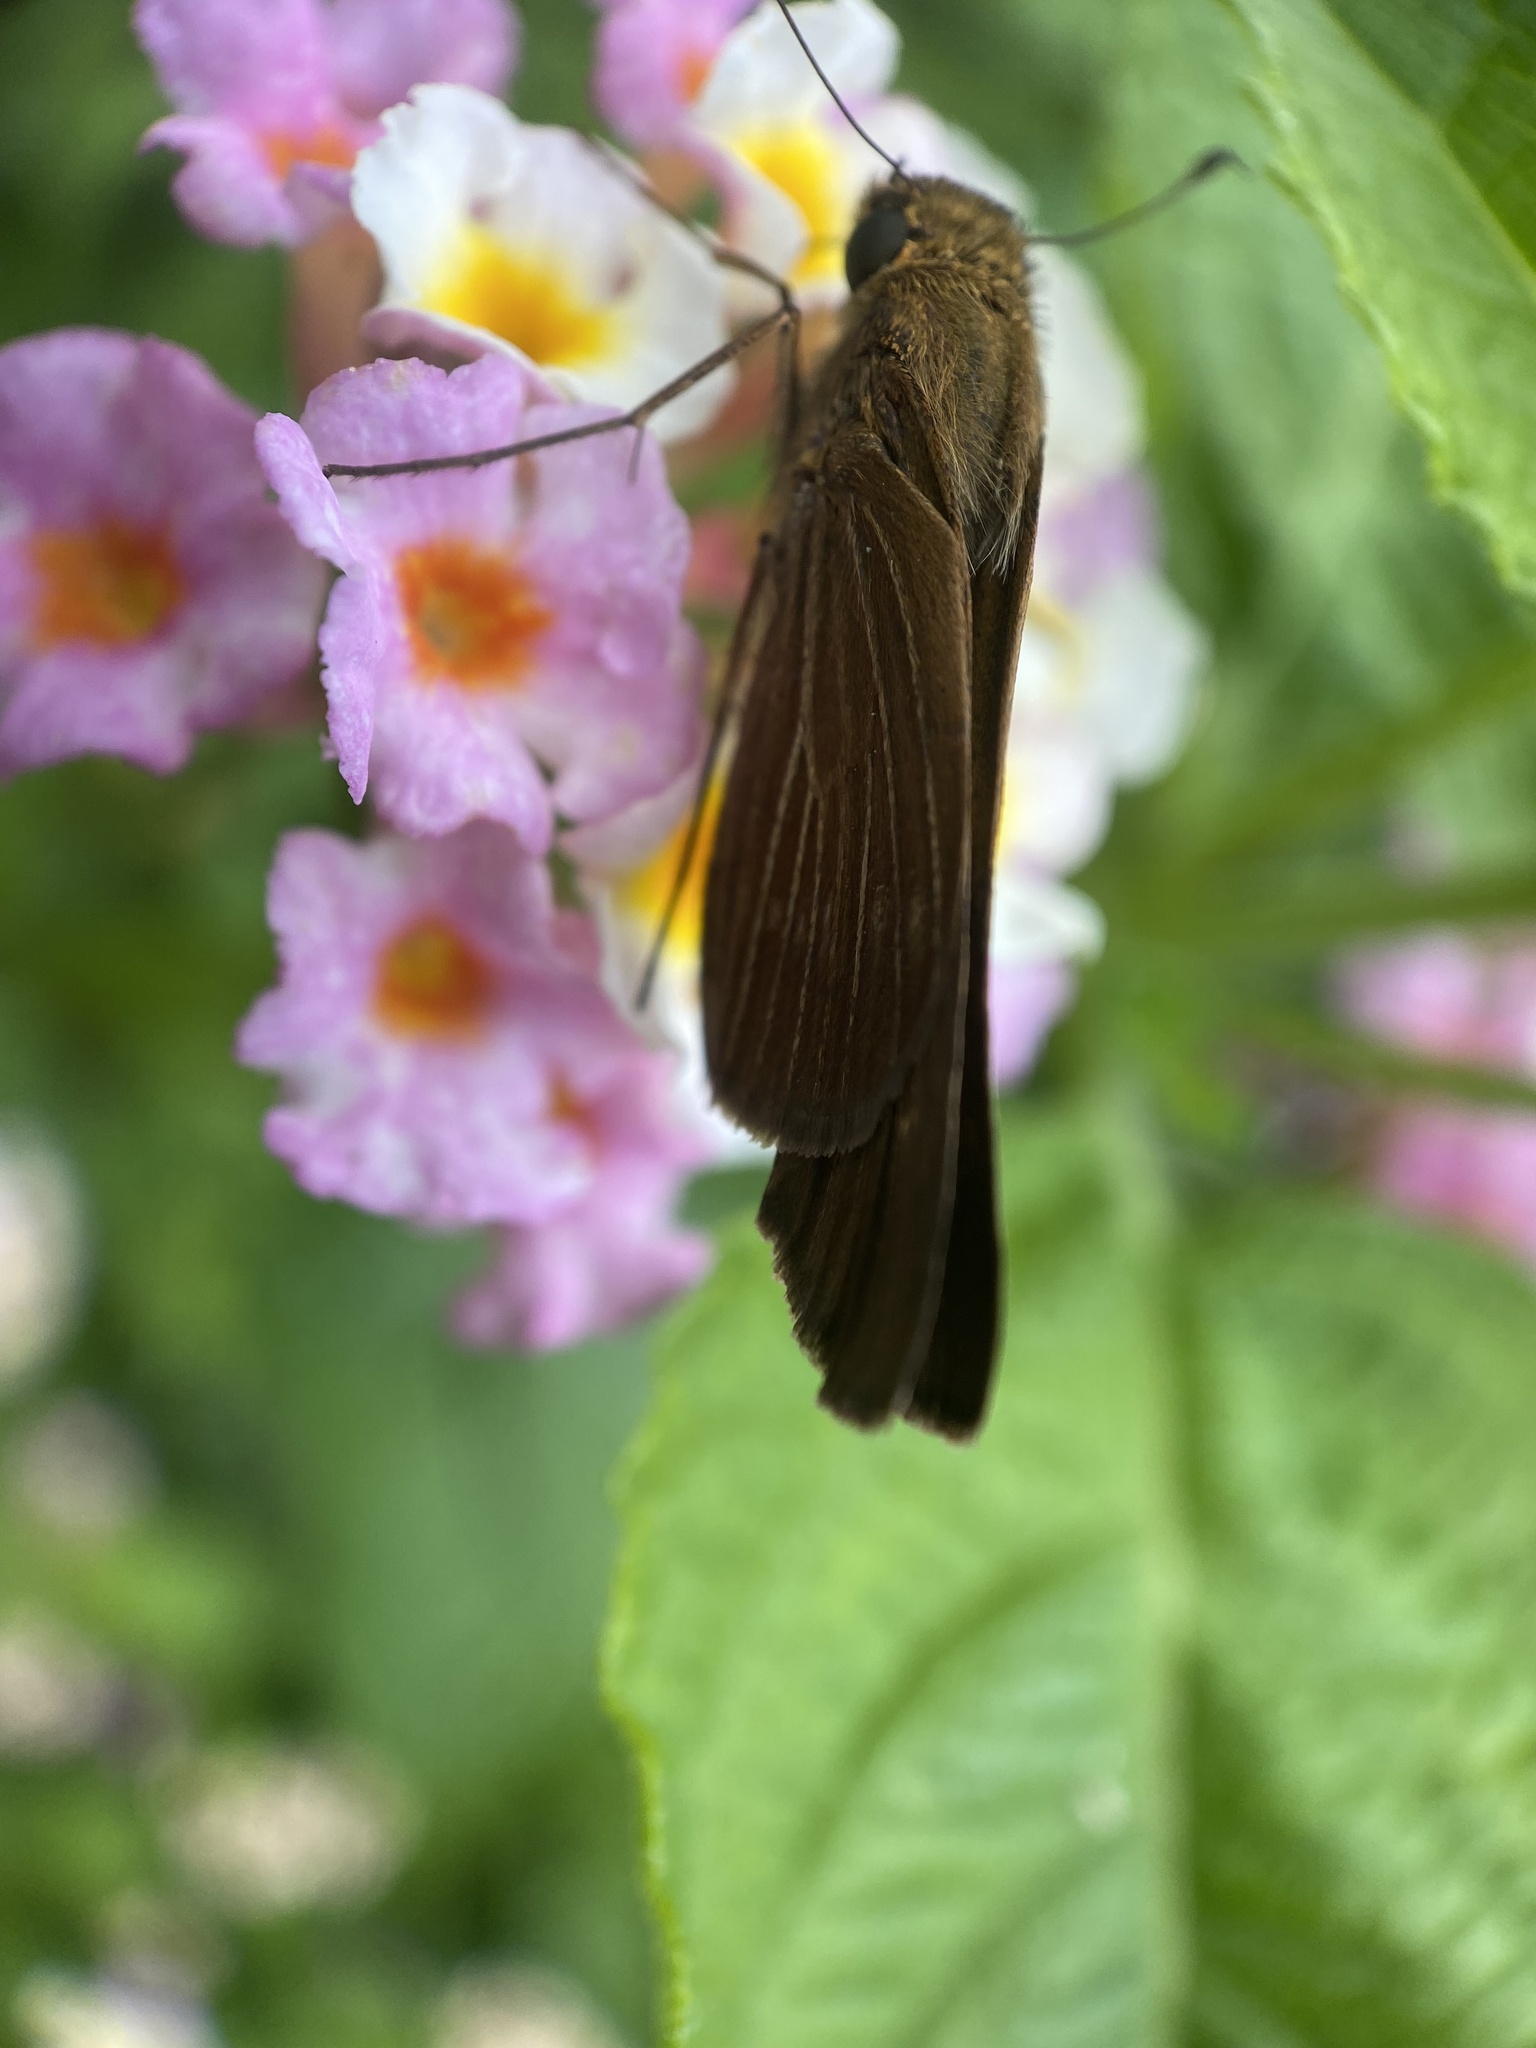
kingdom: Animalia
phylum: Arthropoda
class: Insecta
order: Lepidoptera
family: Hesperiidae
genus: Panoquina
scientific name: Panoquina ocola
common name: Ocola skipper
